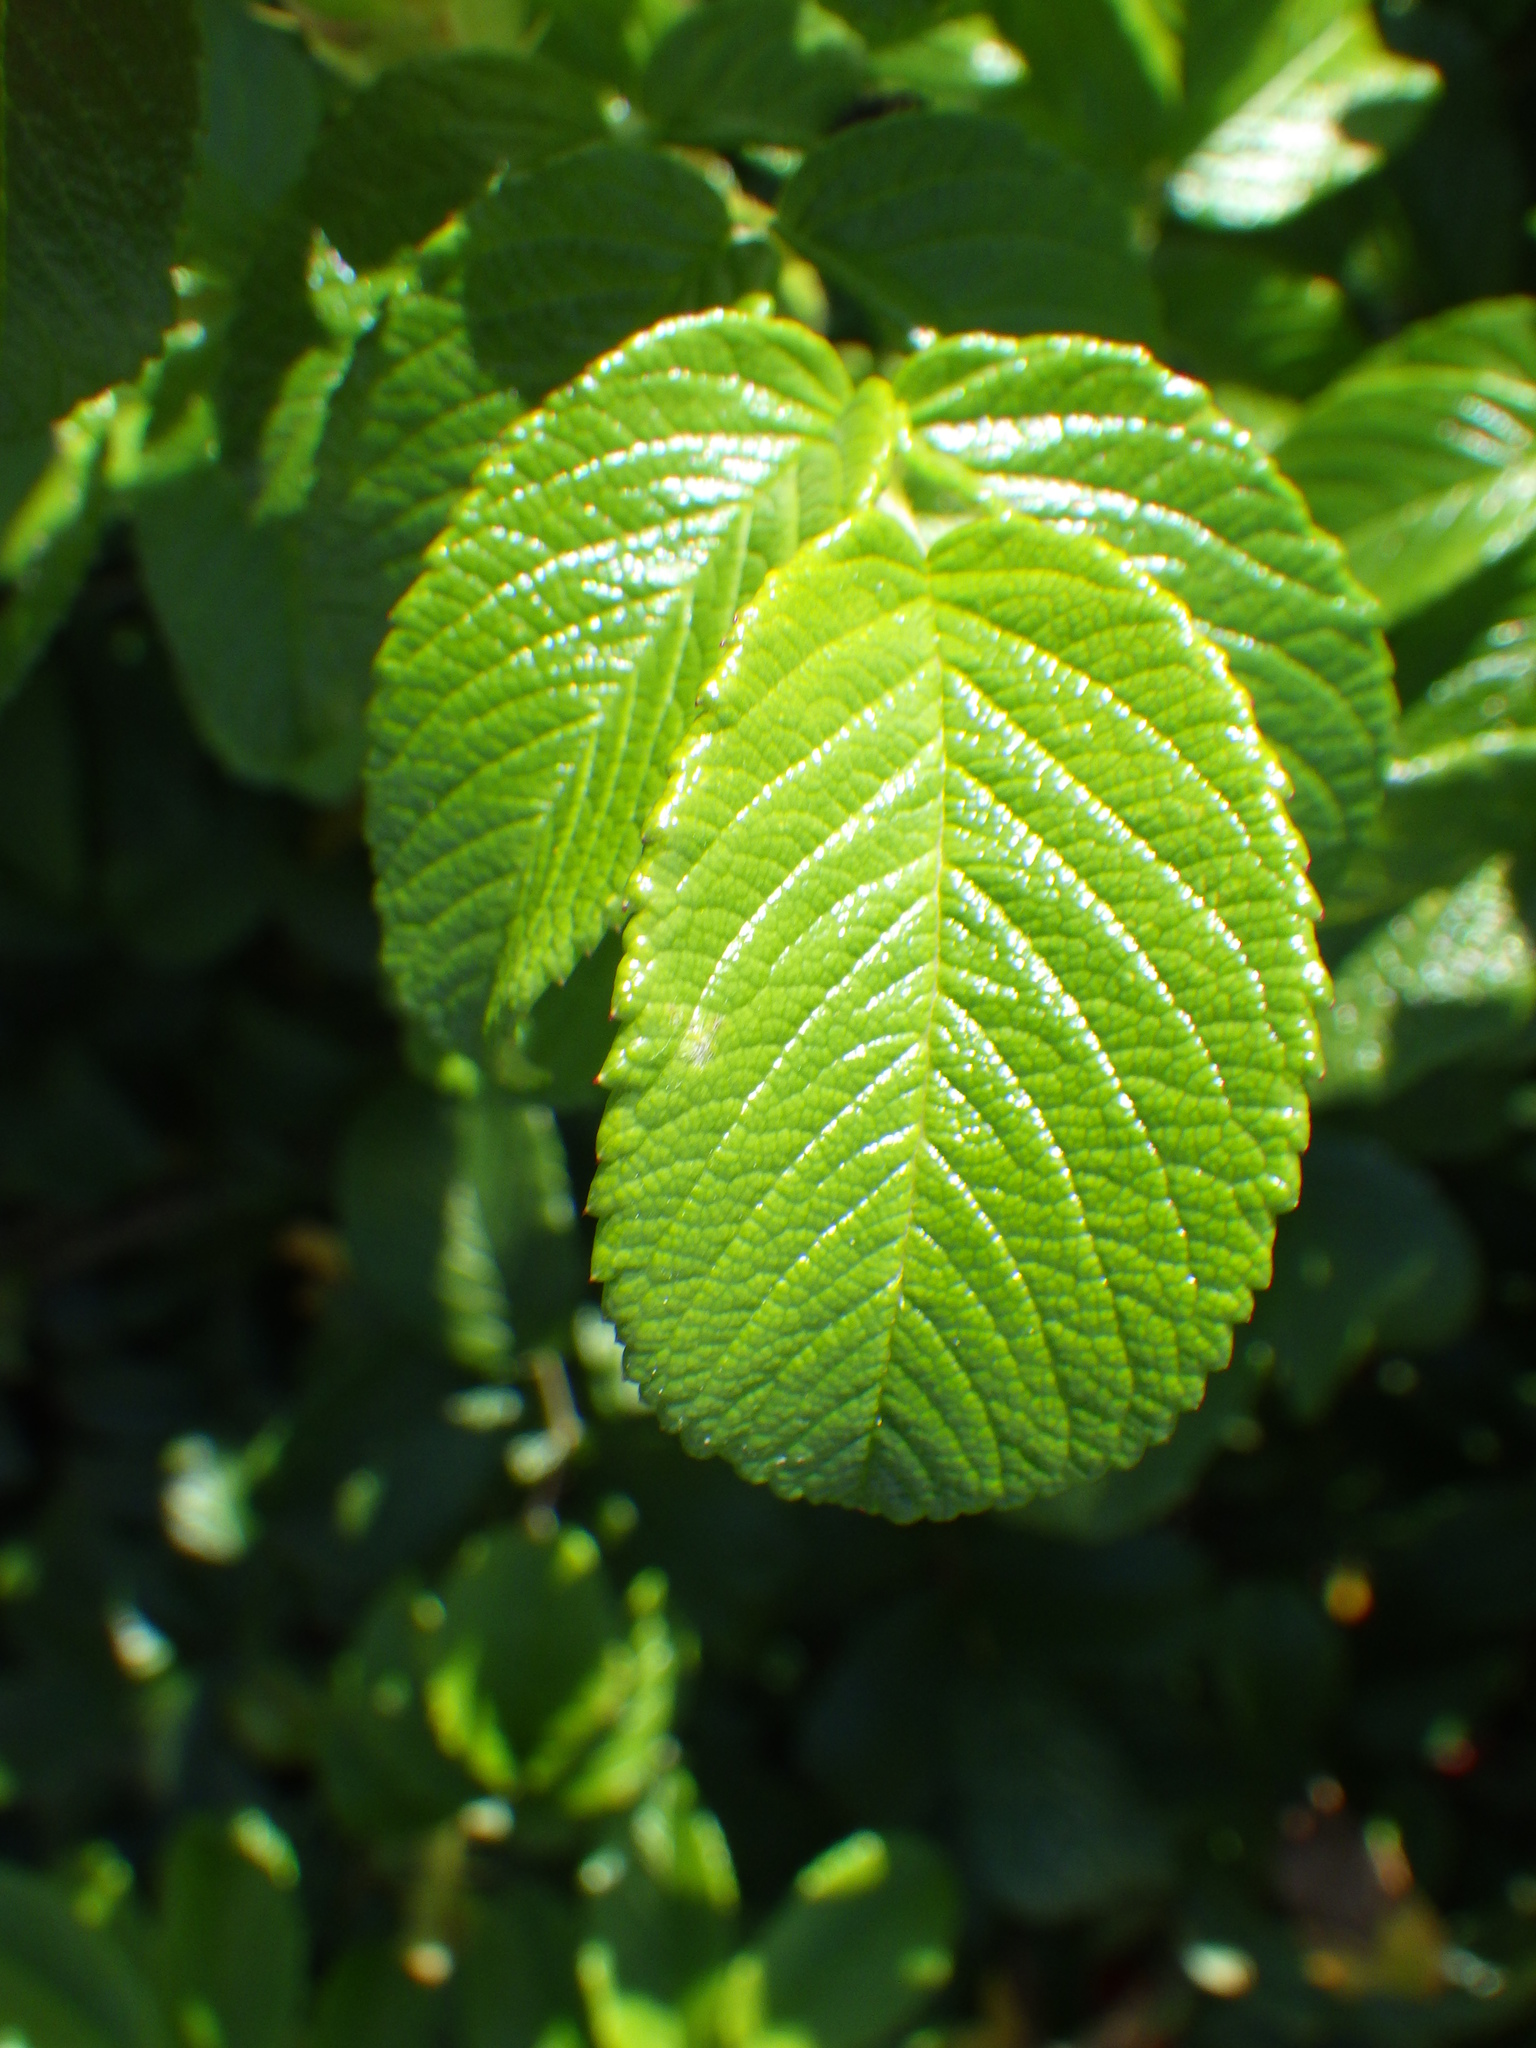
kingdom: Plantae
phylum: Tracheophyta
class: Magnoliopsida
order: Rosales
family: Rosaceae
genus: Rosa
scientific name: Rosa rugosa
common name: Japanese rose
